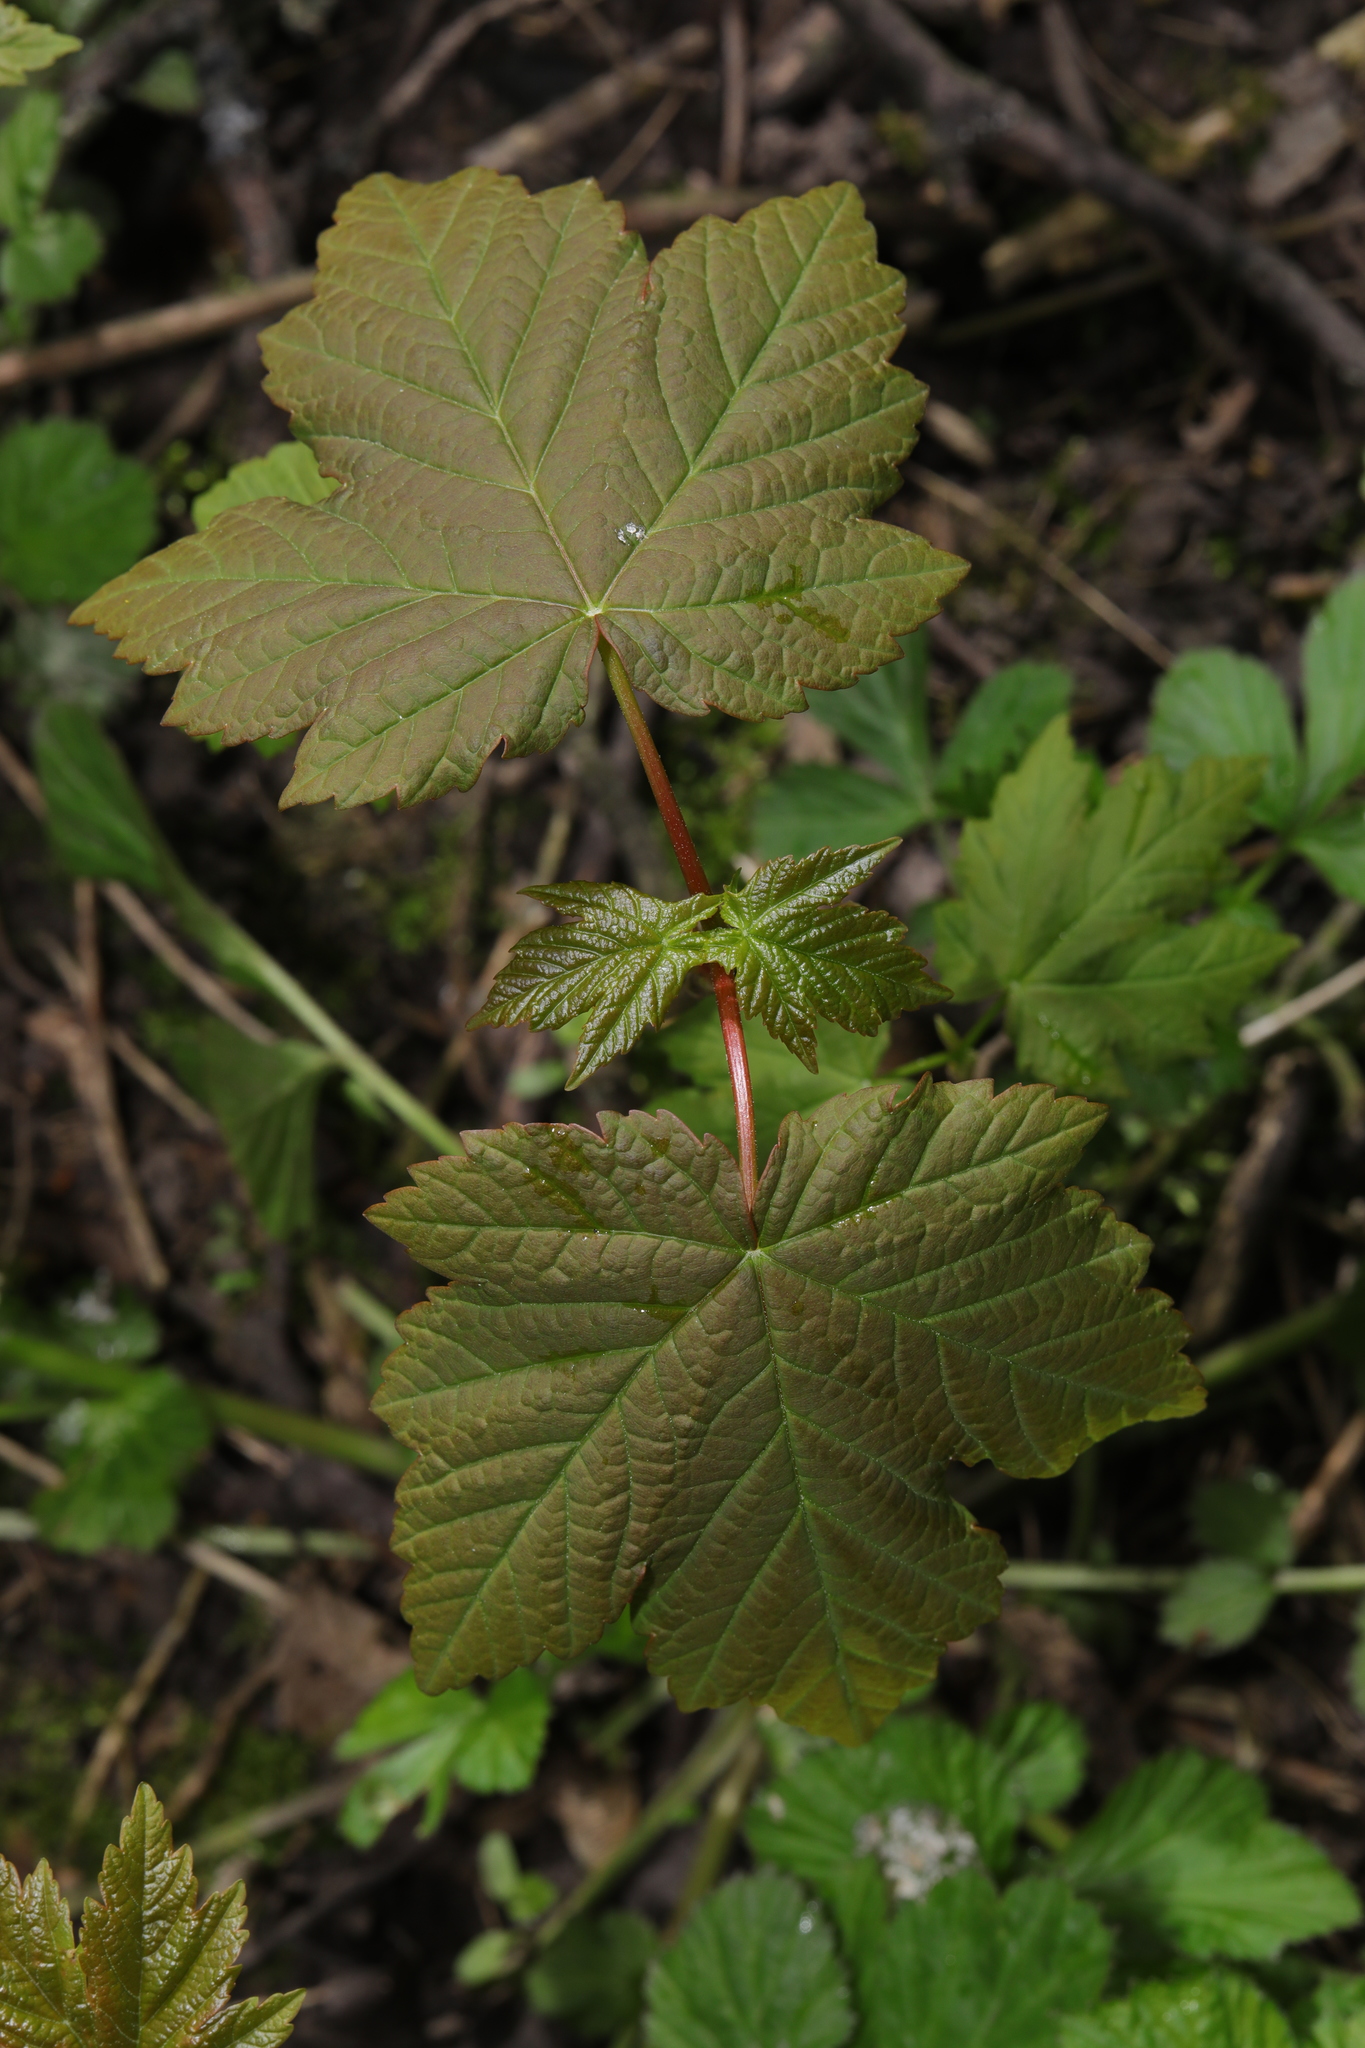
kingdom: Plantae
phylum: Tracheophyta
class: Magnoliopsida
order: Sapindales
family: Sapindaceae
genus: Acer
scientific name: Acer pseudoplatanus
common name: Sycamore
